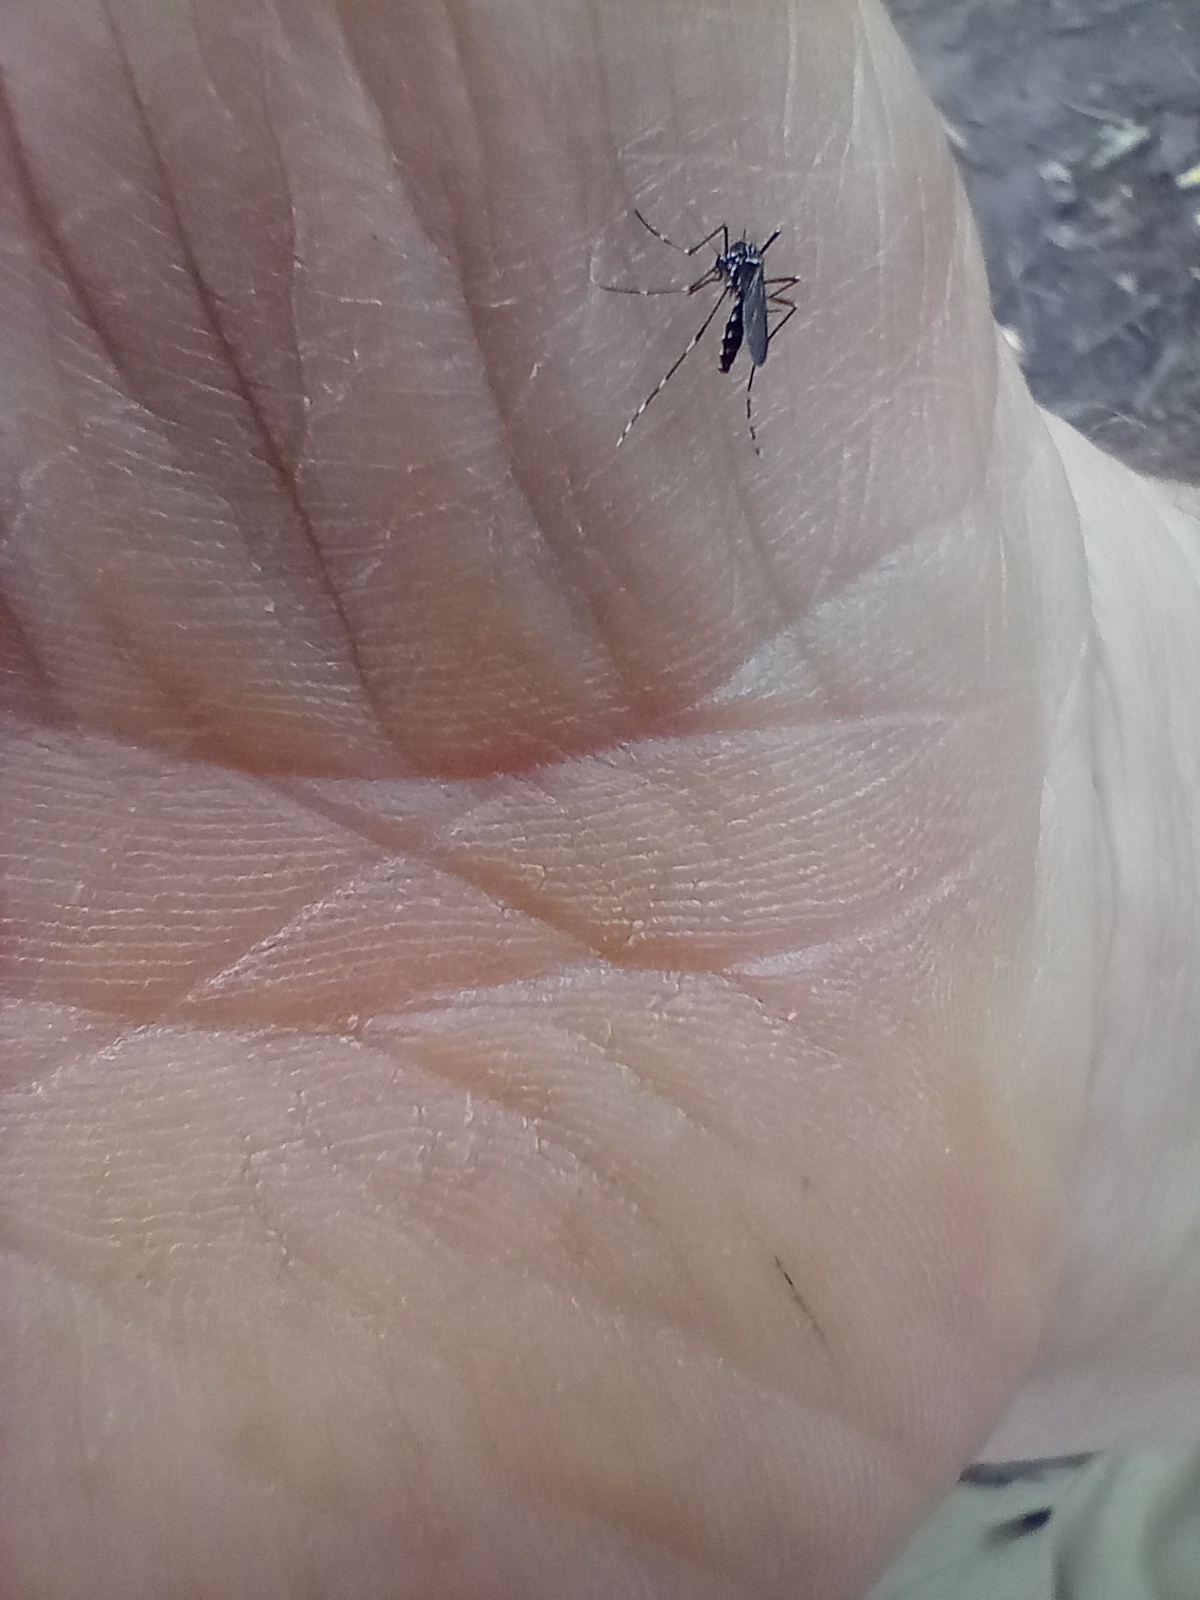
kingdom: Animalia
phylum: Arthropoda
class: Insecta
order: Diptera
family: Culicidae
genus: Aedes
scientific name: Aedes albopictus
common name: Tiger mosquito
